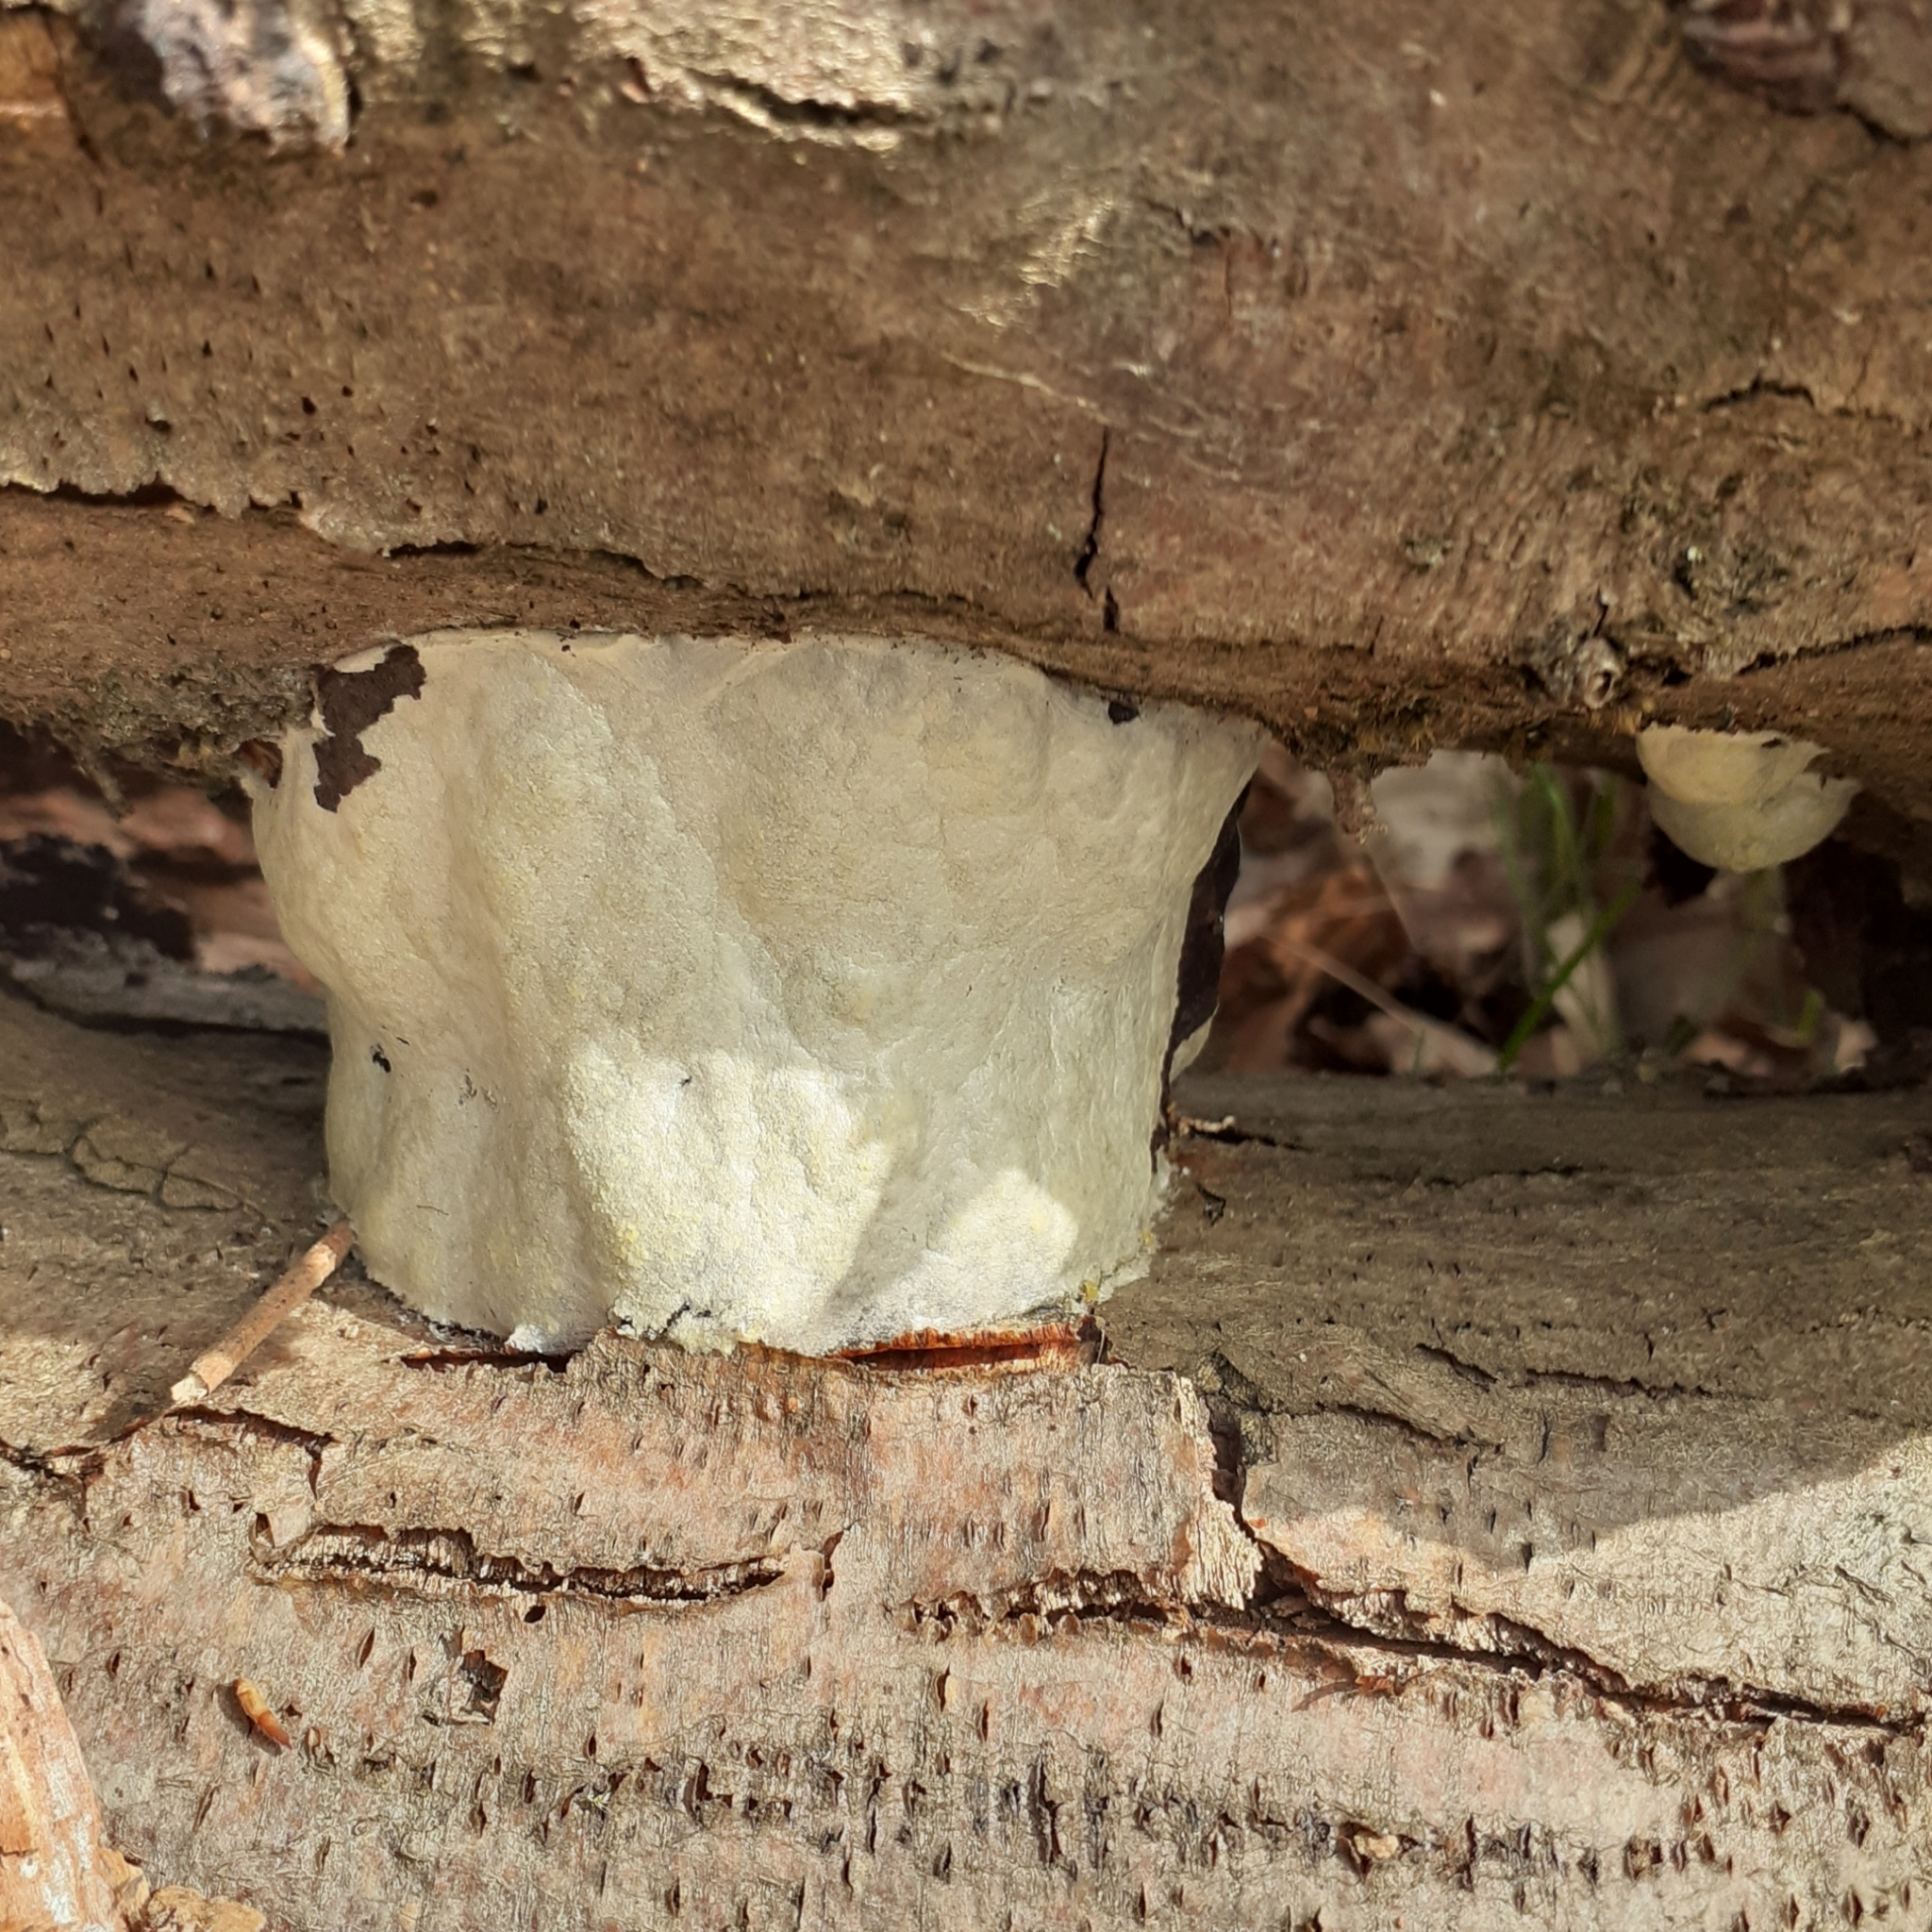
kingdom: Protozoa
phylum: Mycetozoa
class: Myxomycetes
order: Cribrariales
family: Tubiferaceae
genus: Reticularia
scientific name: Reticularia lycoperdon
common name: False puffball
